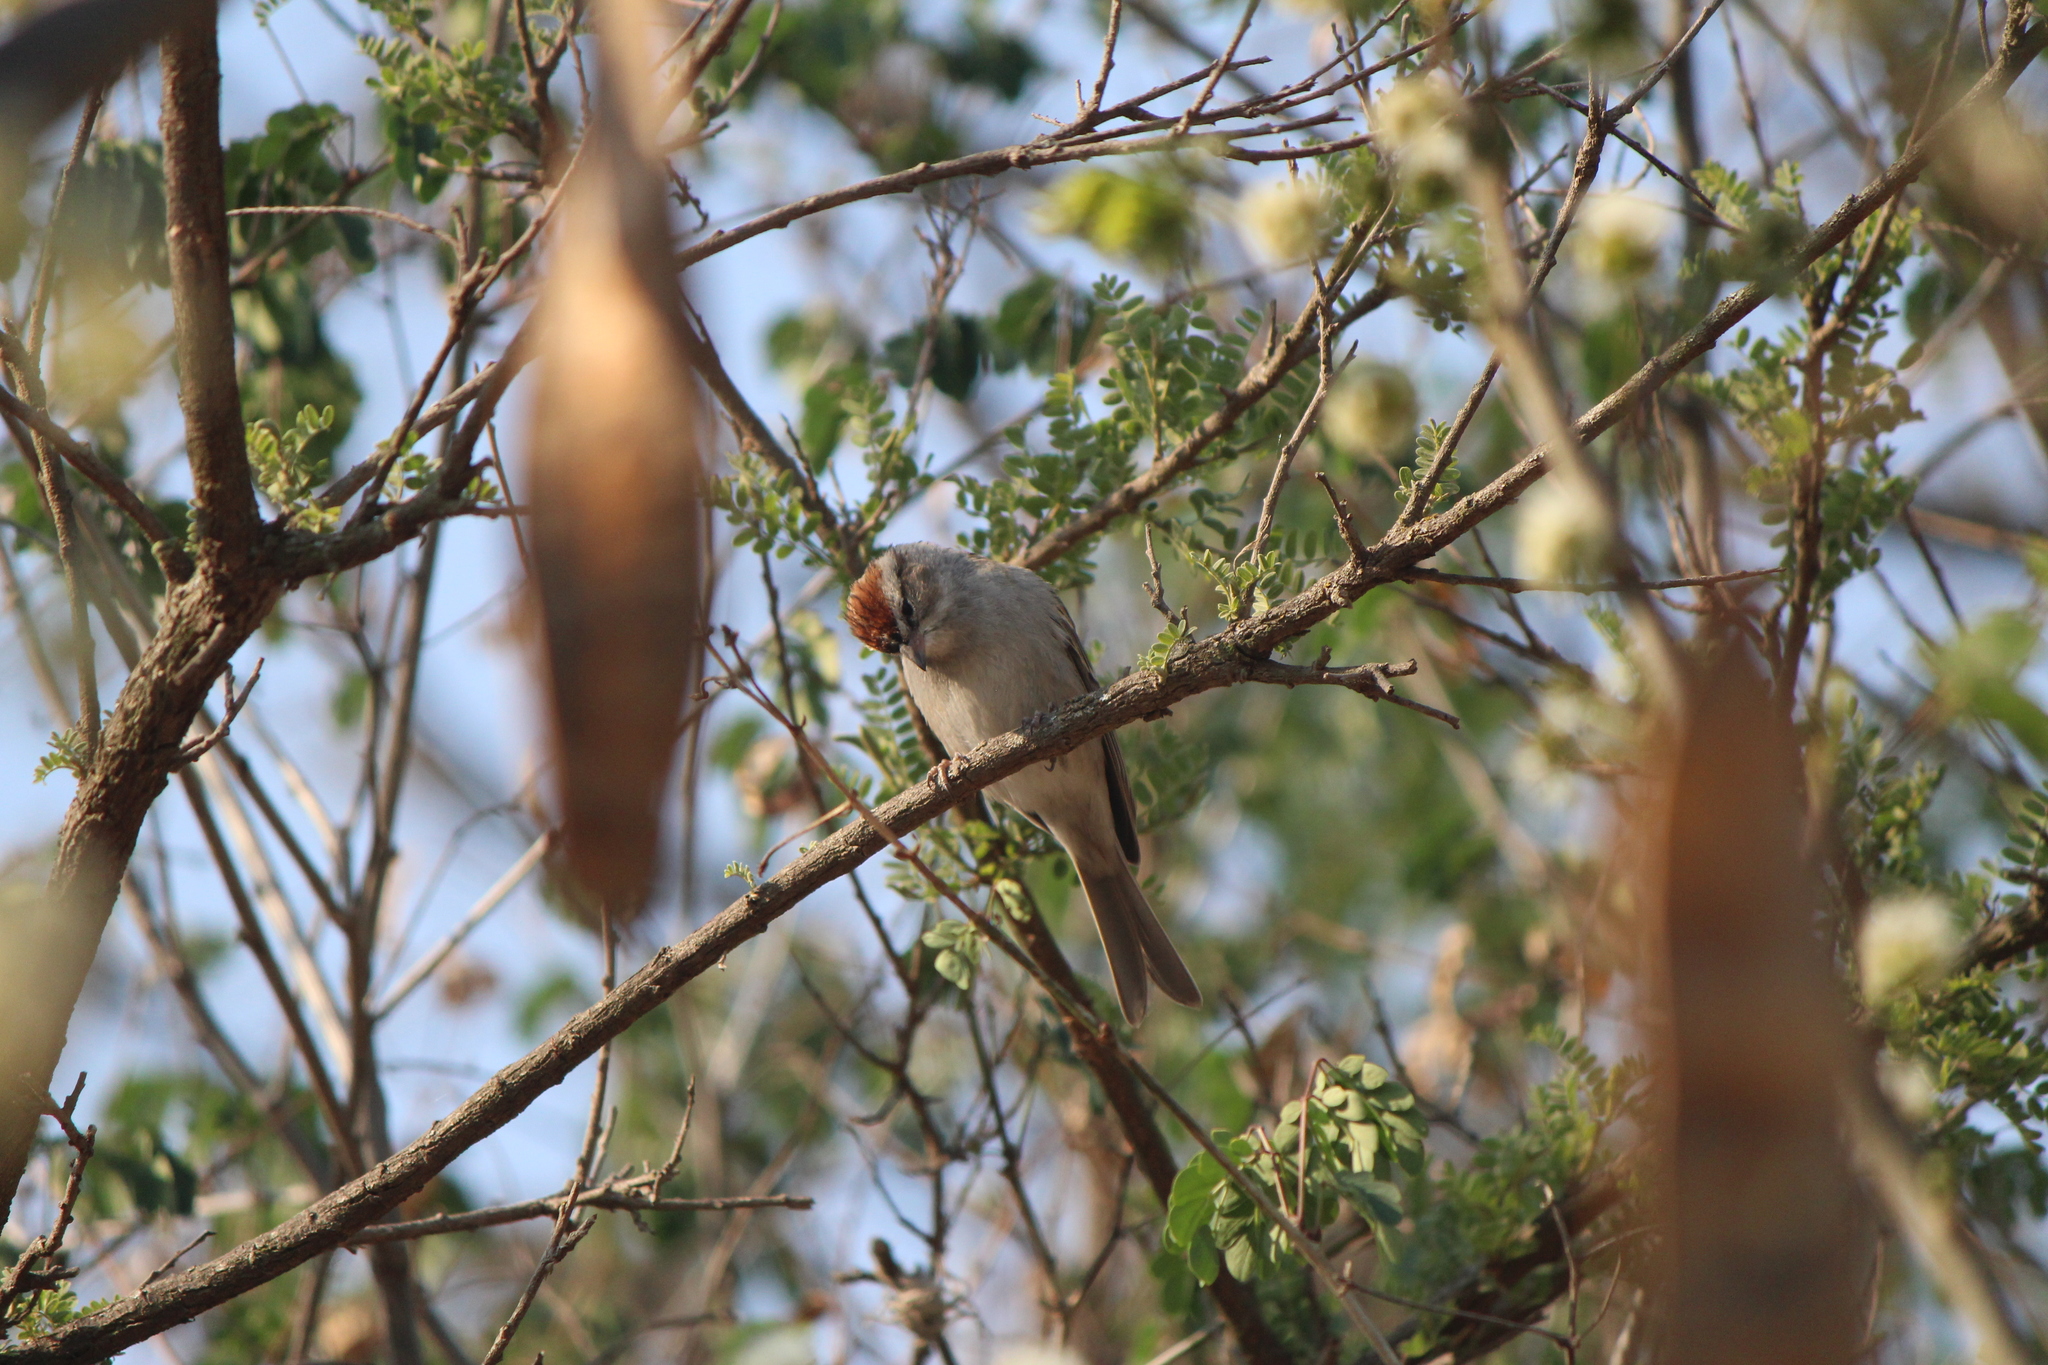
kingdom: Animalia
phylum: Chordata
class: Aves
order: Passeriformes
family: Passerellidae
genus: Spizella
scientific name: Spizella passerina
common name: Chipping sparrow
